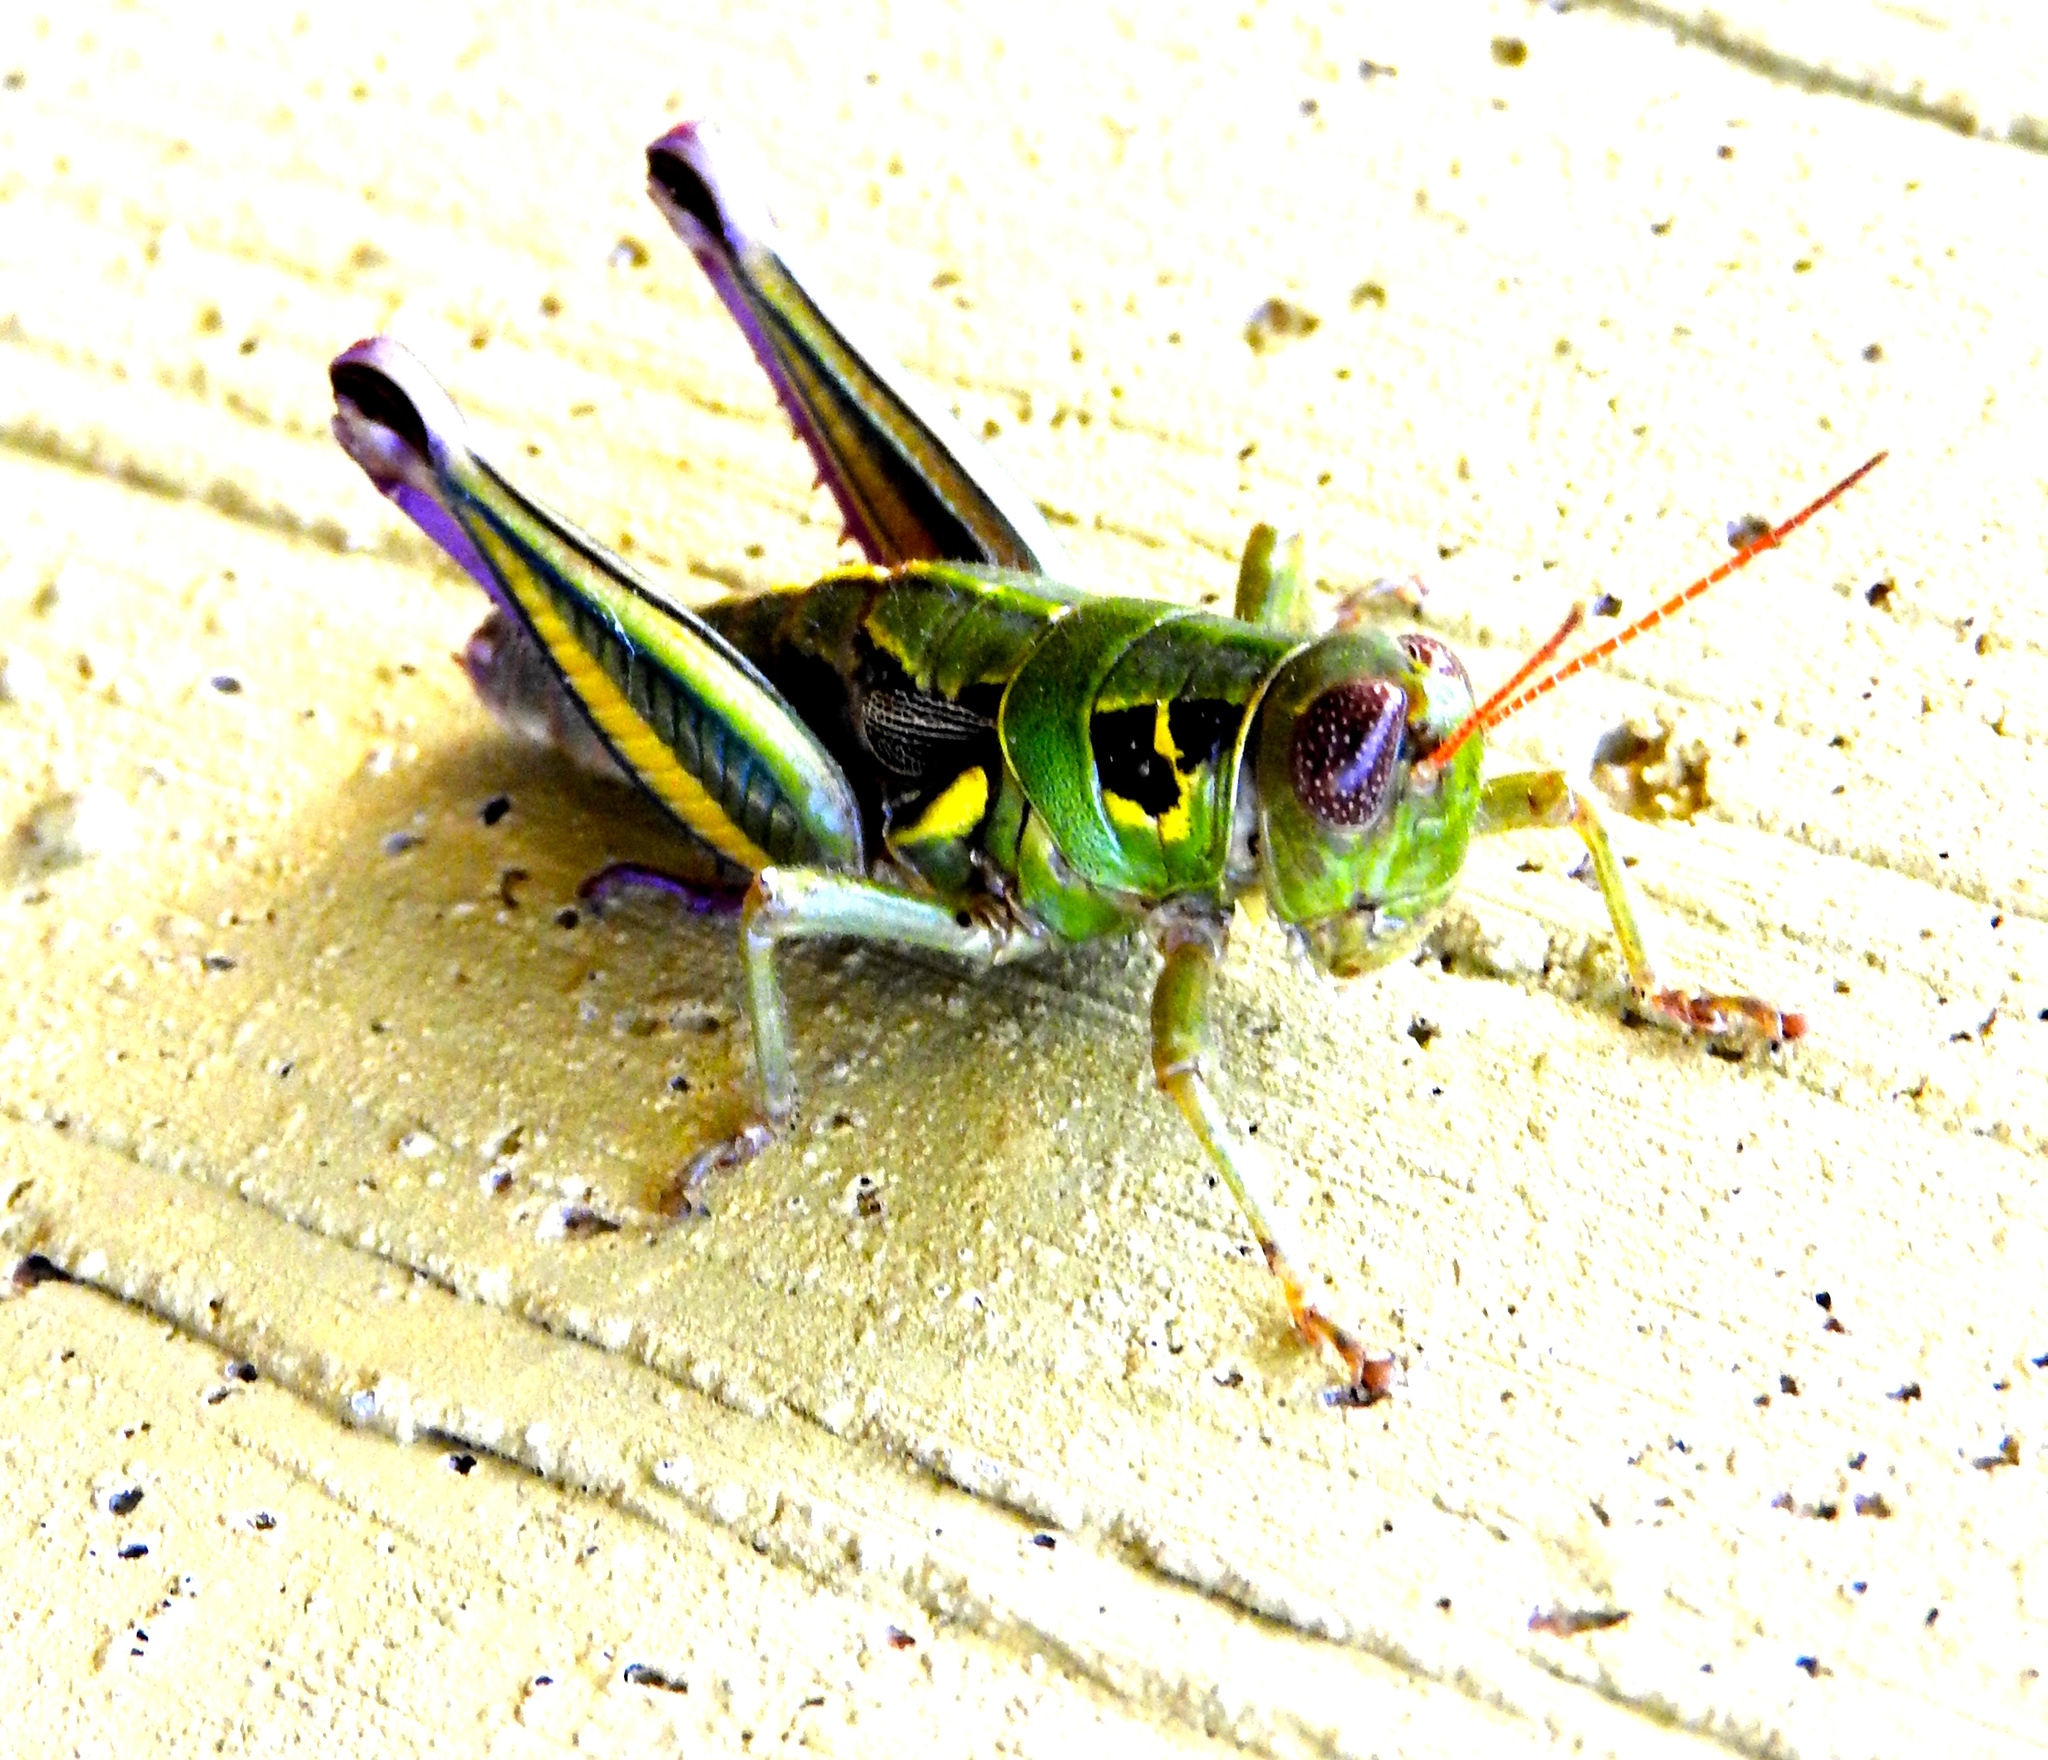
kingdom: Animalia
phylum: Arthropoda
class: Insecta
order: Orthoptera
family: Acrididae
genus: Barytettix
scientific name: Barytettix
